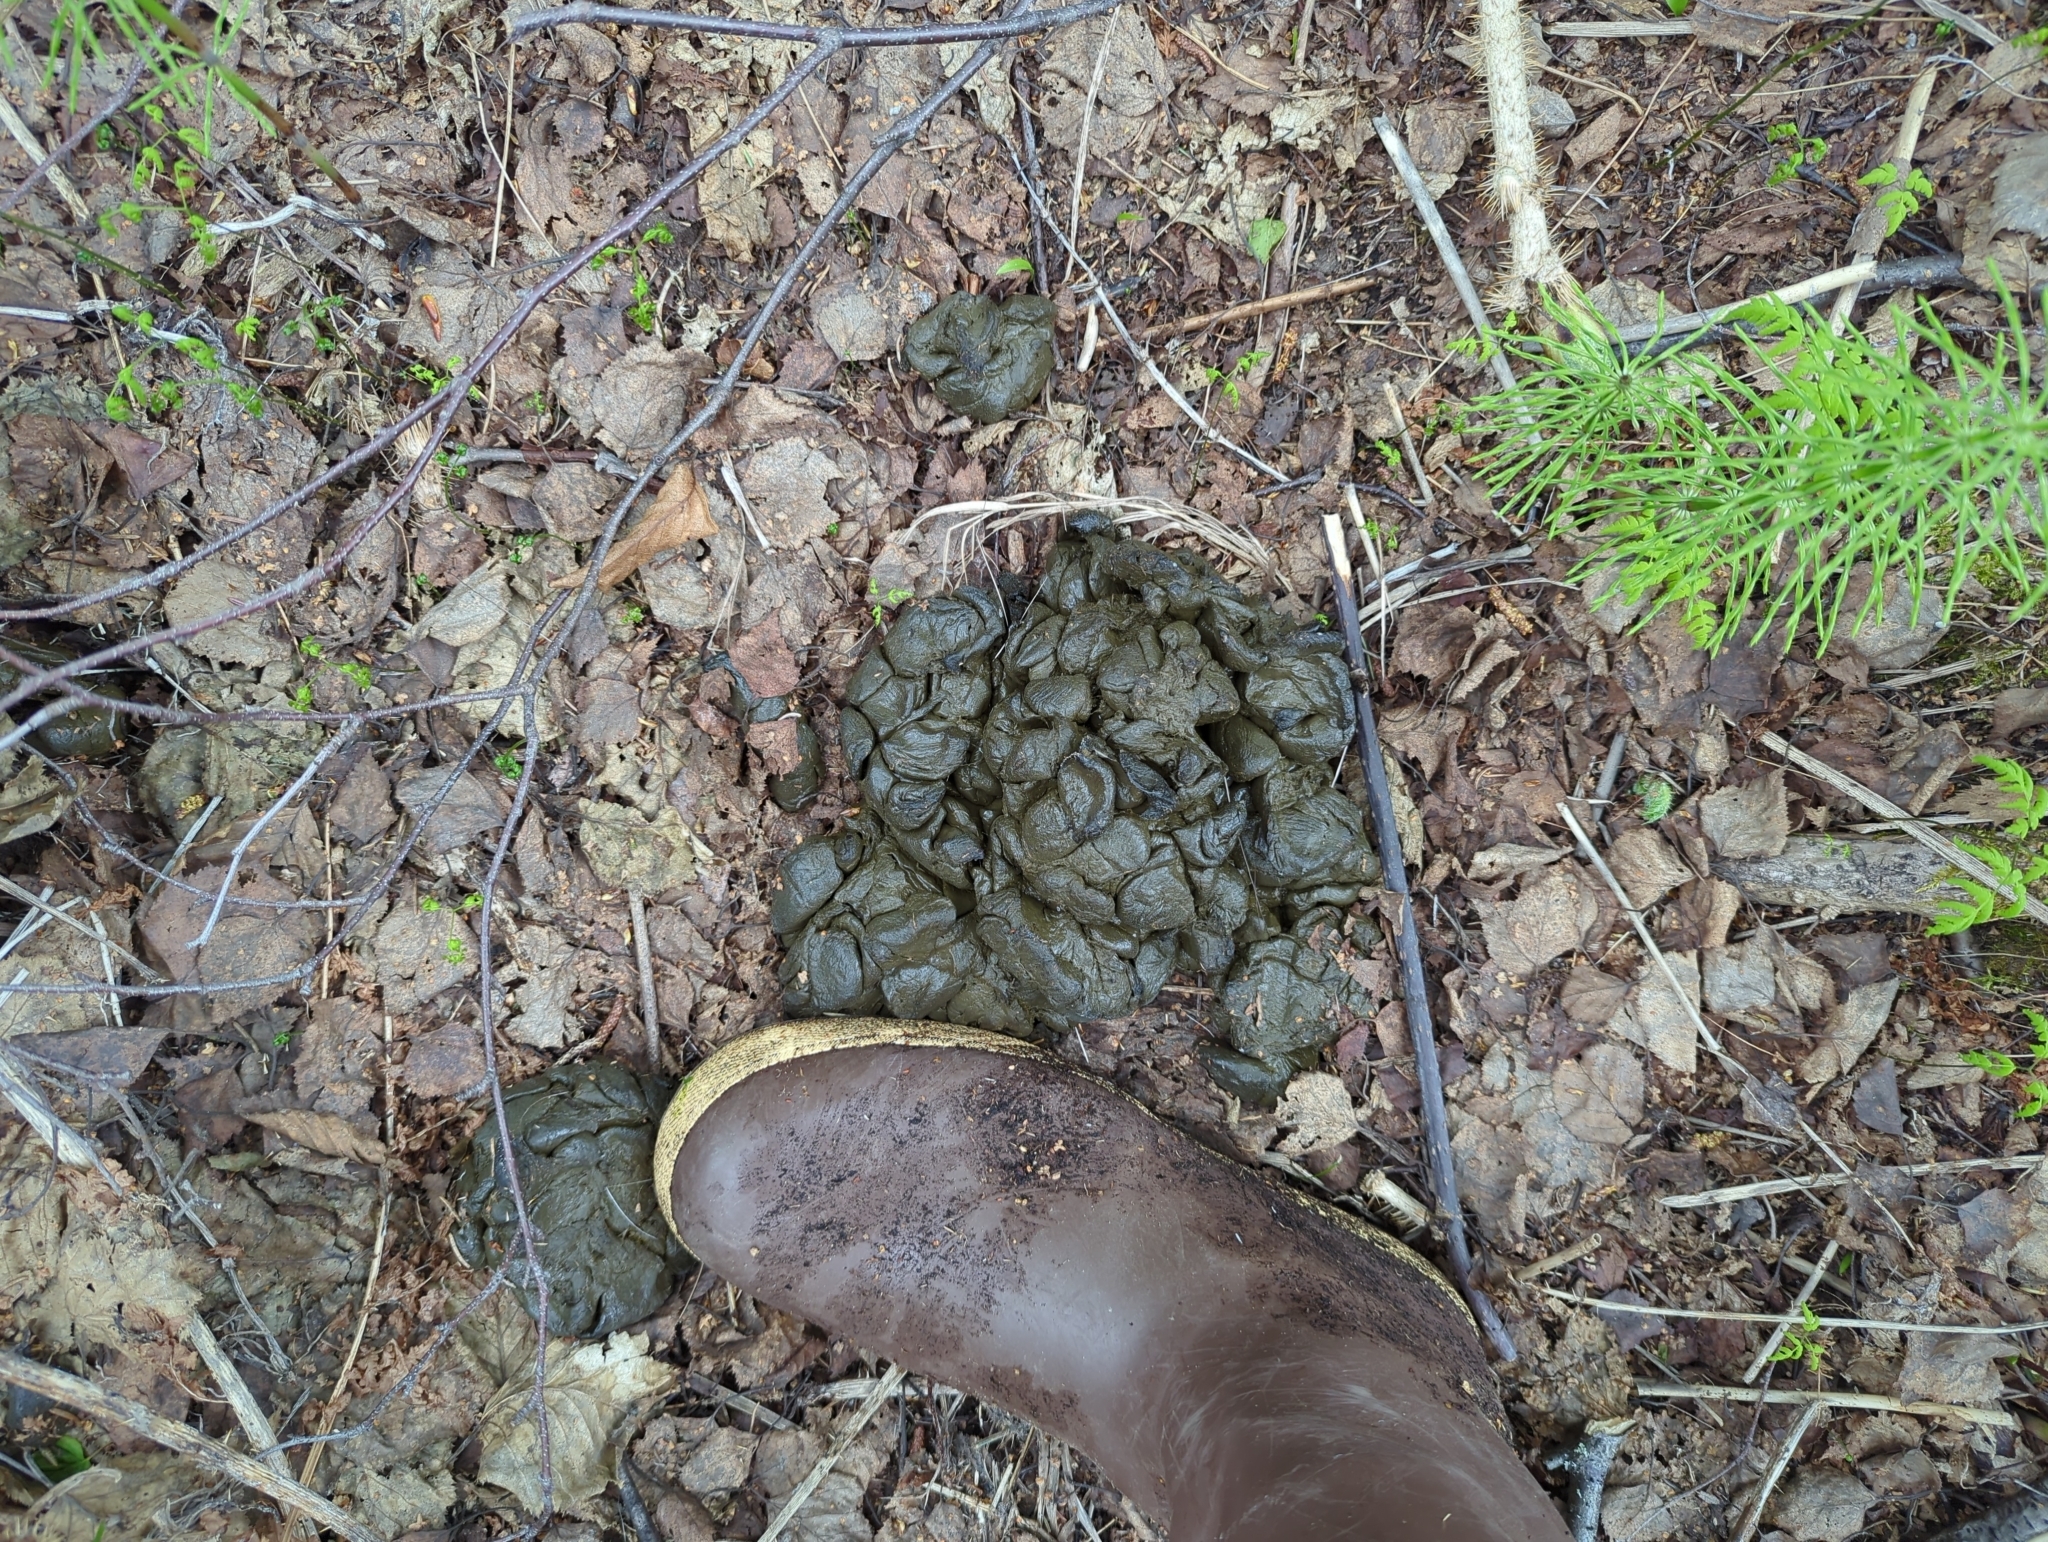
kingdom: Animalia
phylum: Chordata
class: Mammalia
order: Artiodactyla
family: Cervidae
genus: Alces
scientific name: Alces alces
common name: Moose
